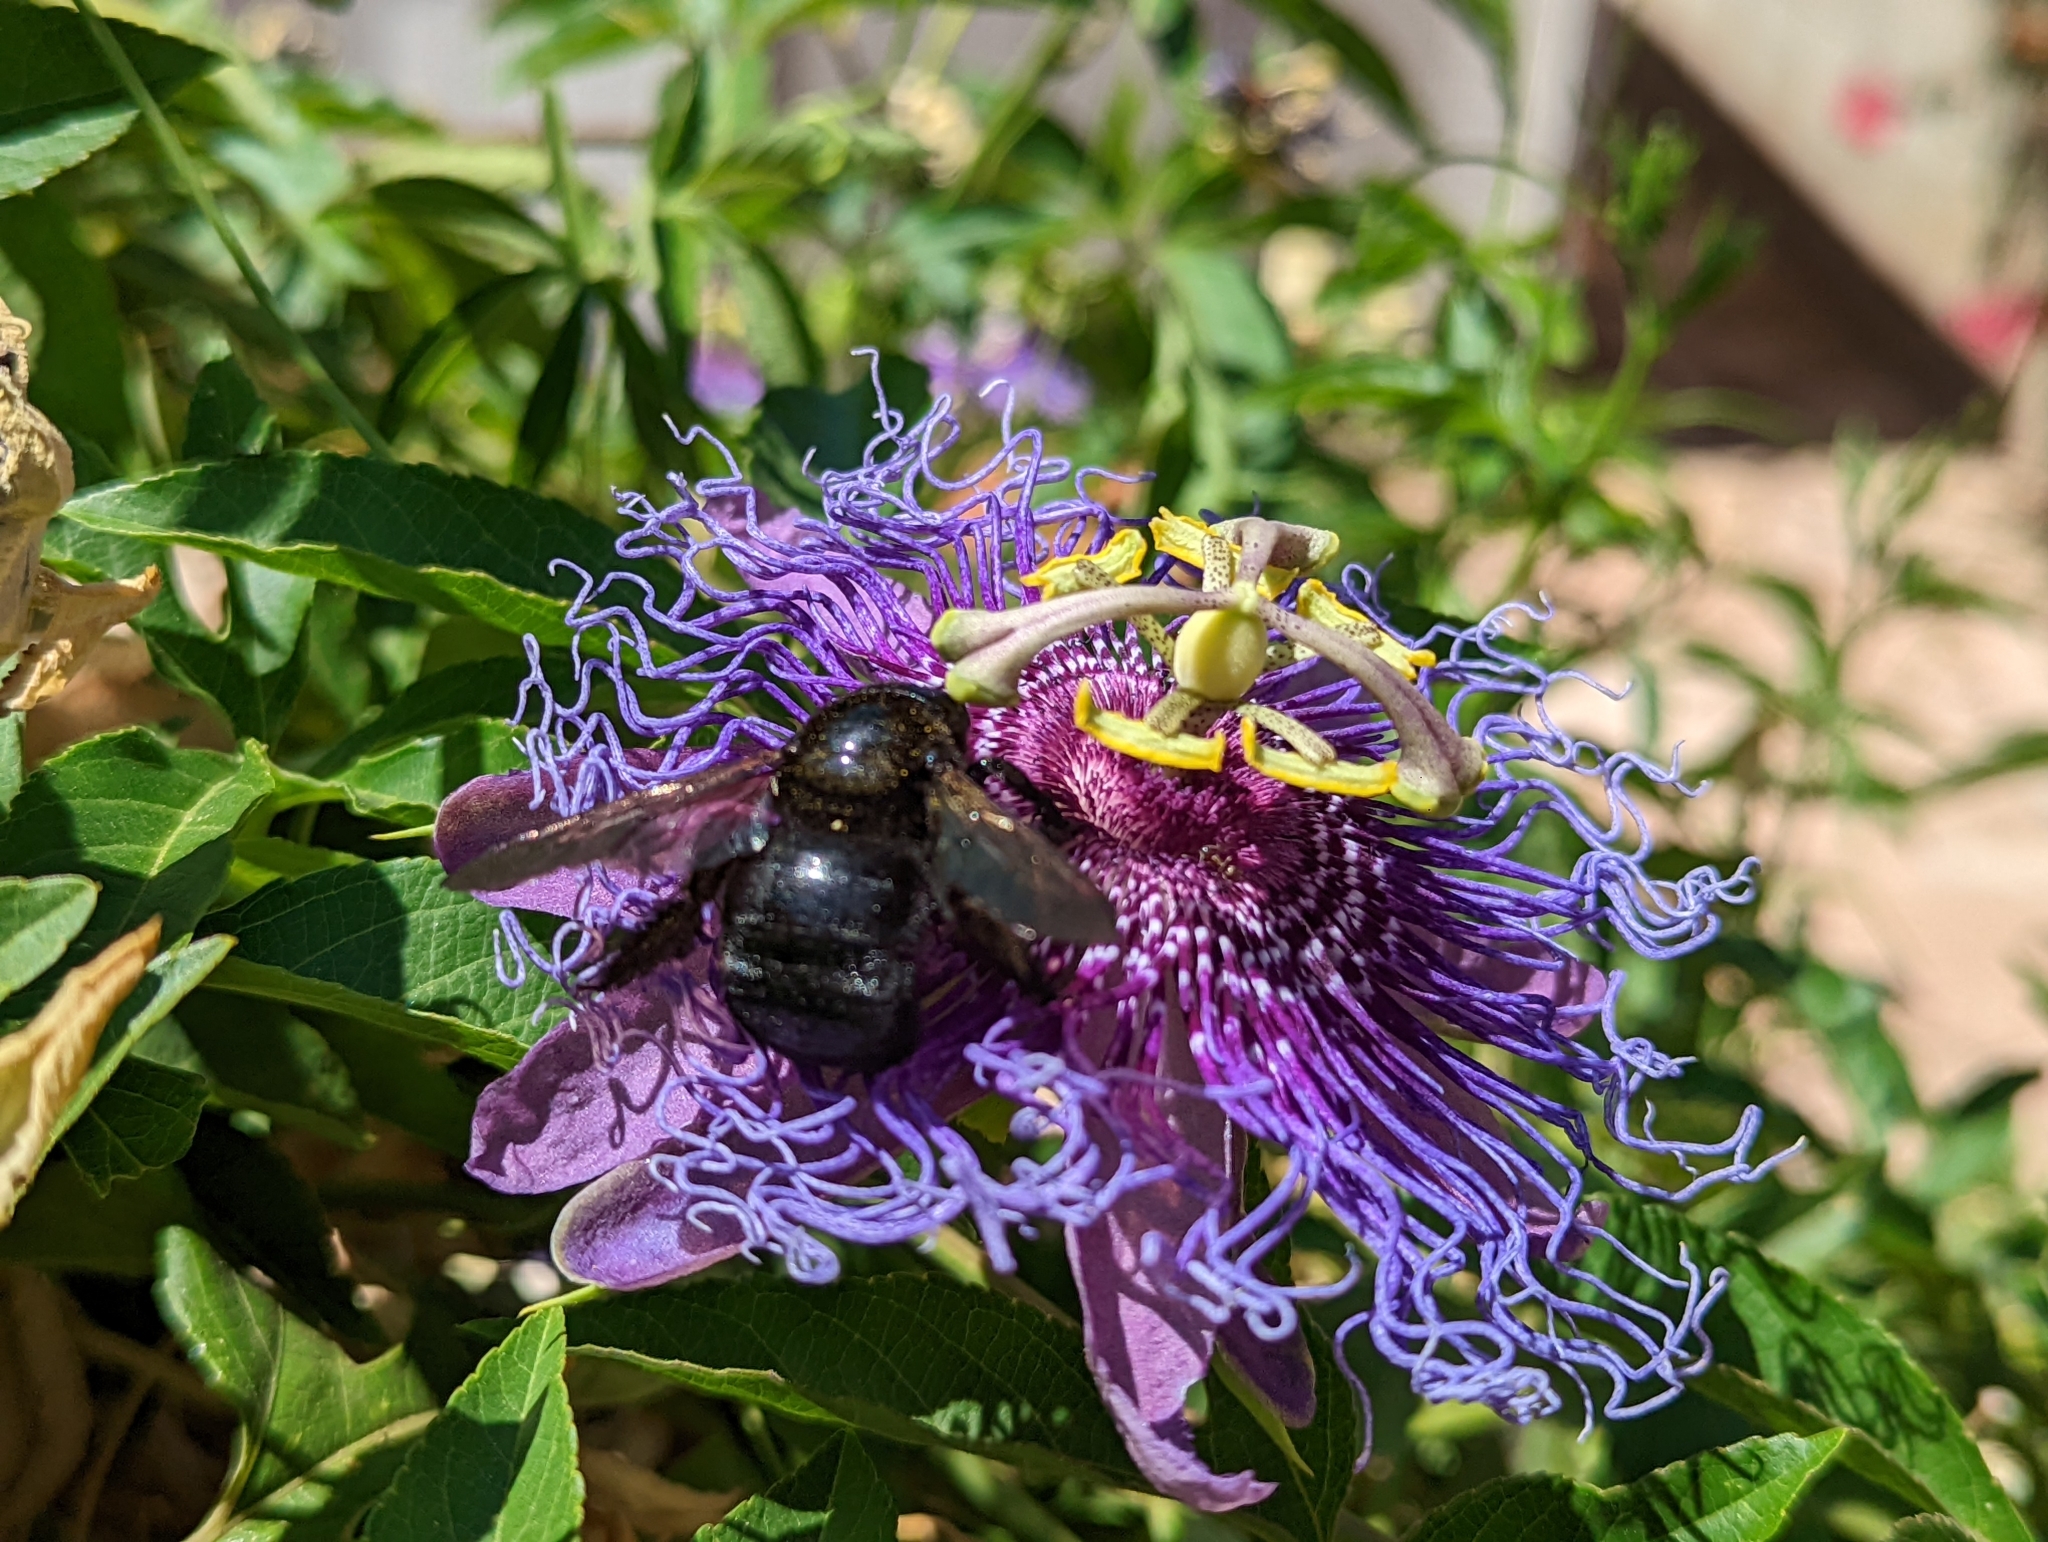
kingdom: Animalia
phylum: Arthropoda
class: Insecta
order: Hymenoptera
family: Apidae
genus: Xylocopa
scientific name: Xylocopa sonorina
